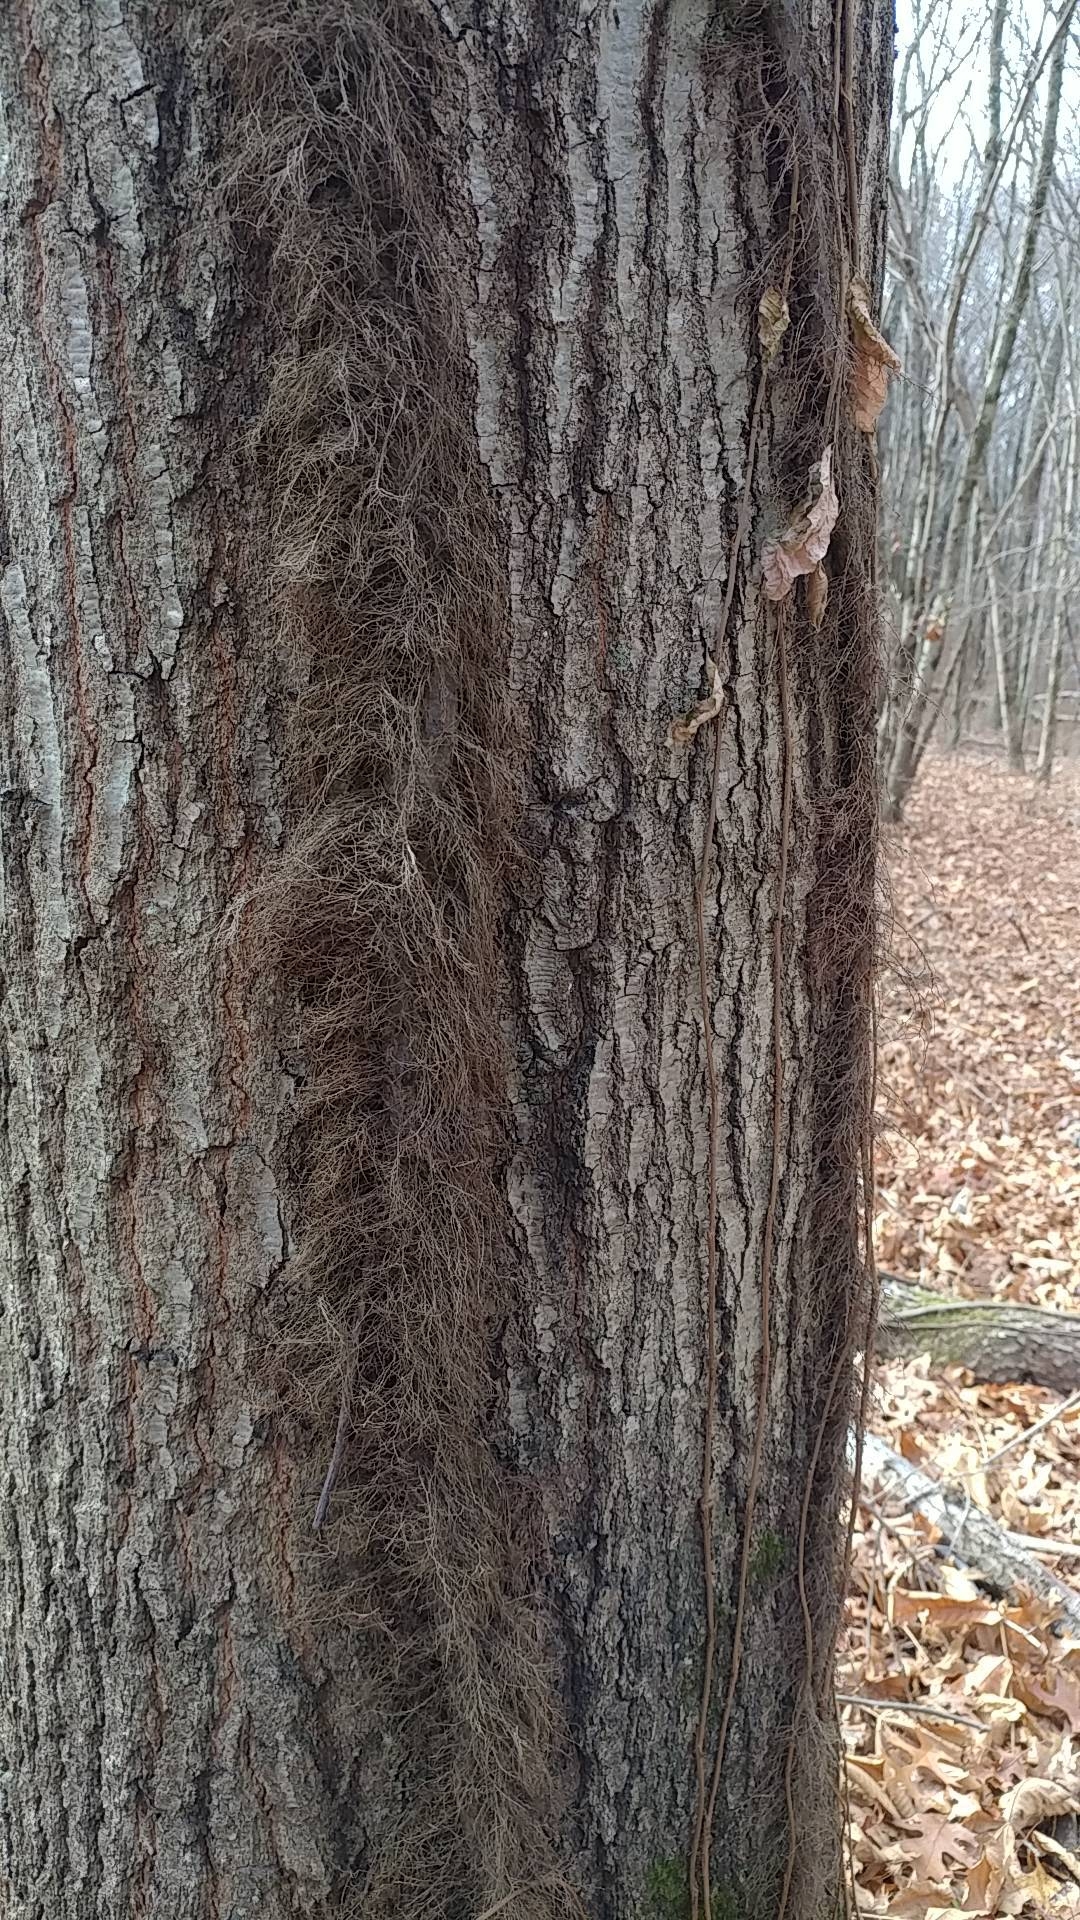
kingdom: Plantae
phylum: Tracheophyta
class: Magnoliopsida
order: Sapindales
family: Anacardiaceae
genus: Toxicodendron
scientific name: Toxicodendron radicans
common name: Poison ivy
